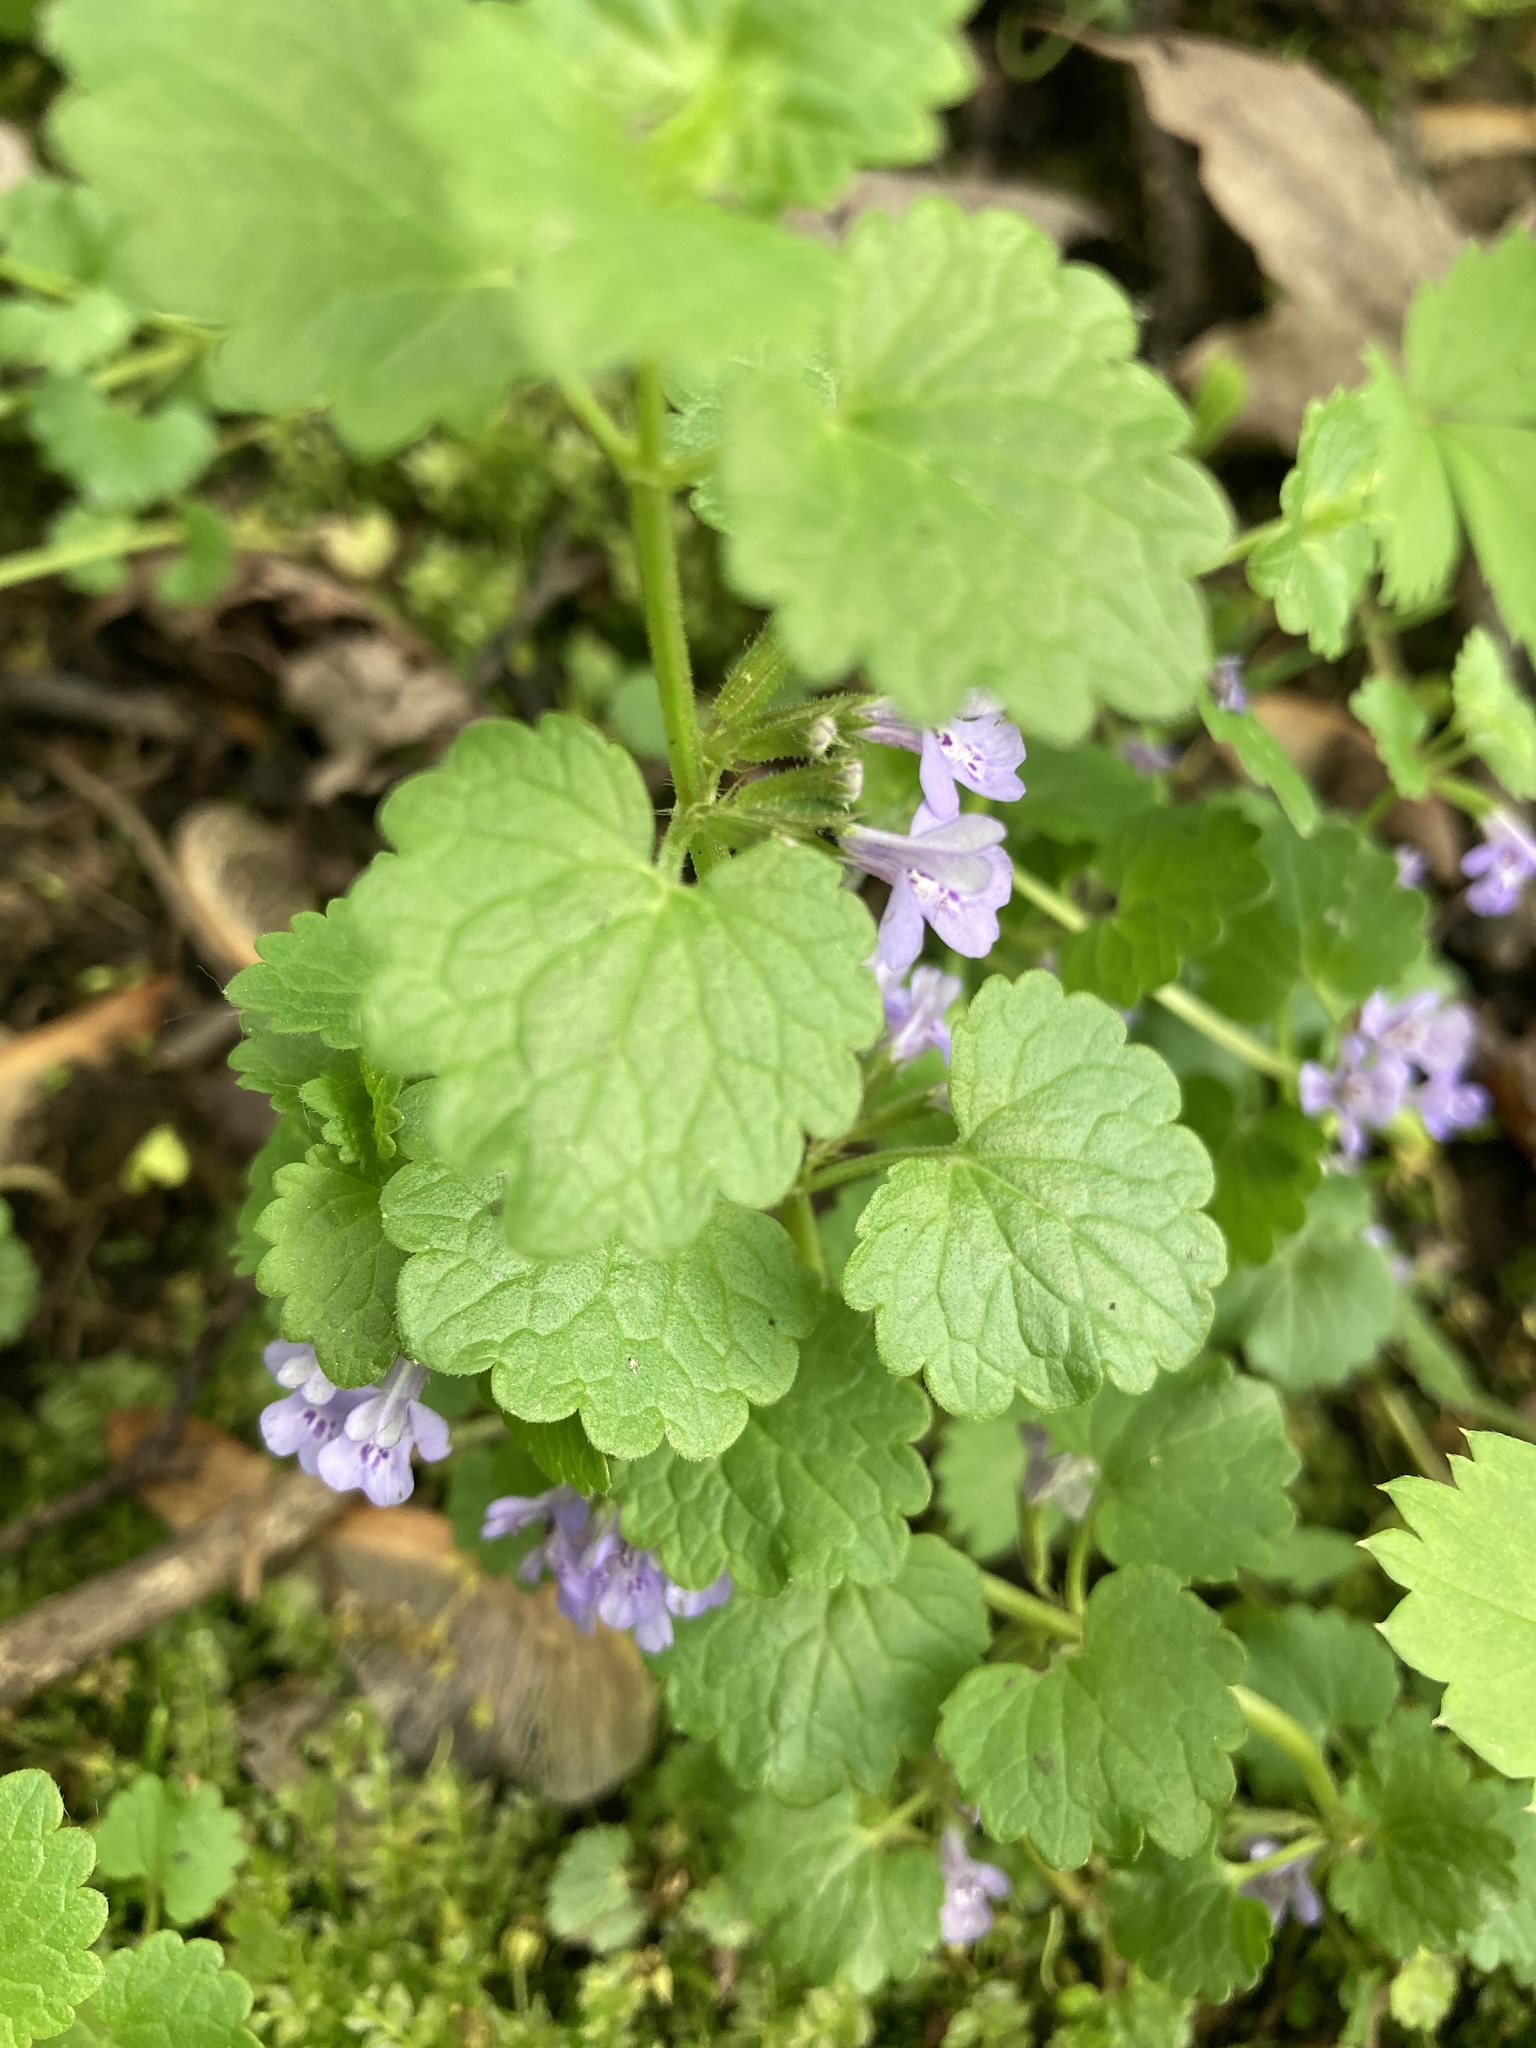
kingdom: Plantae
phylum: Tracheophyta
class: Magnoliopsida
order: Lamiales
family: Lamiaceae
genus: Glechoma
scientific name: Glechoma hederacea
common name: Ground ivy
